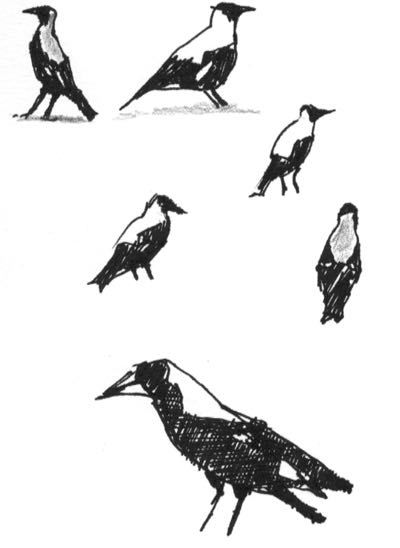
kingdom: Animalia
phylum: Chordata
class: Aves
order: Passeriformes
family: Cracticidae
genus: Gymnorhina
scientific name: Gymnorhina tibicen
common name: Australian magpie
